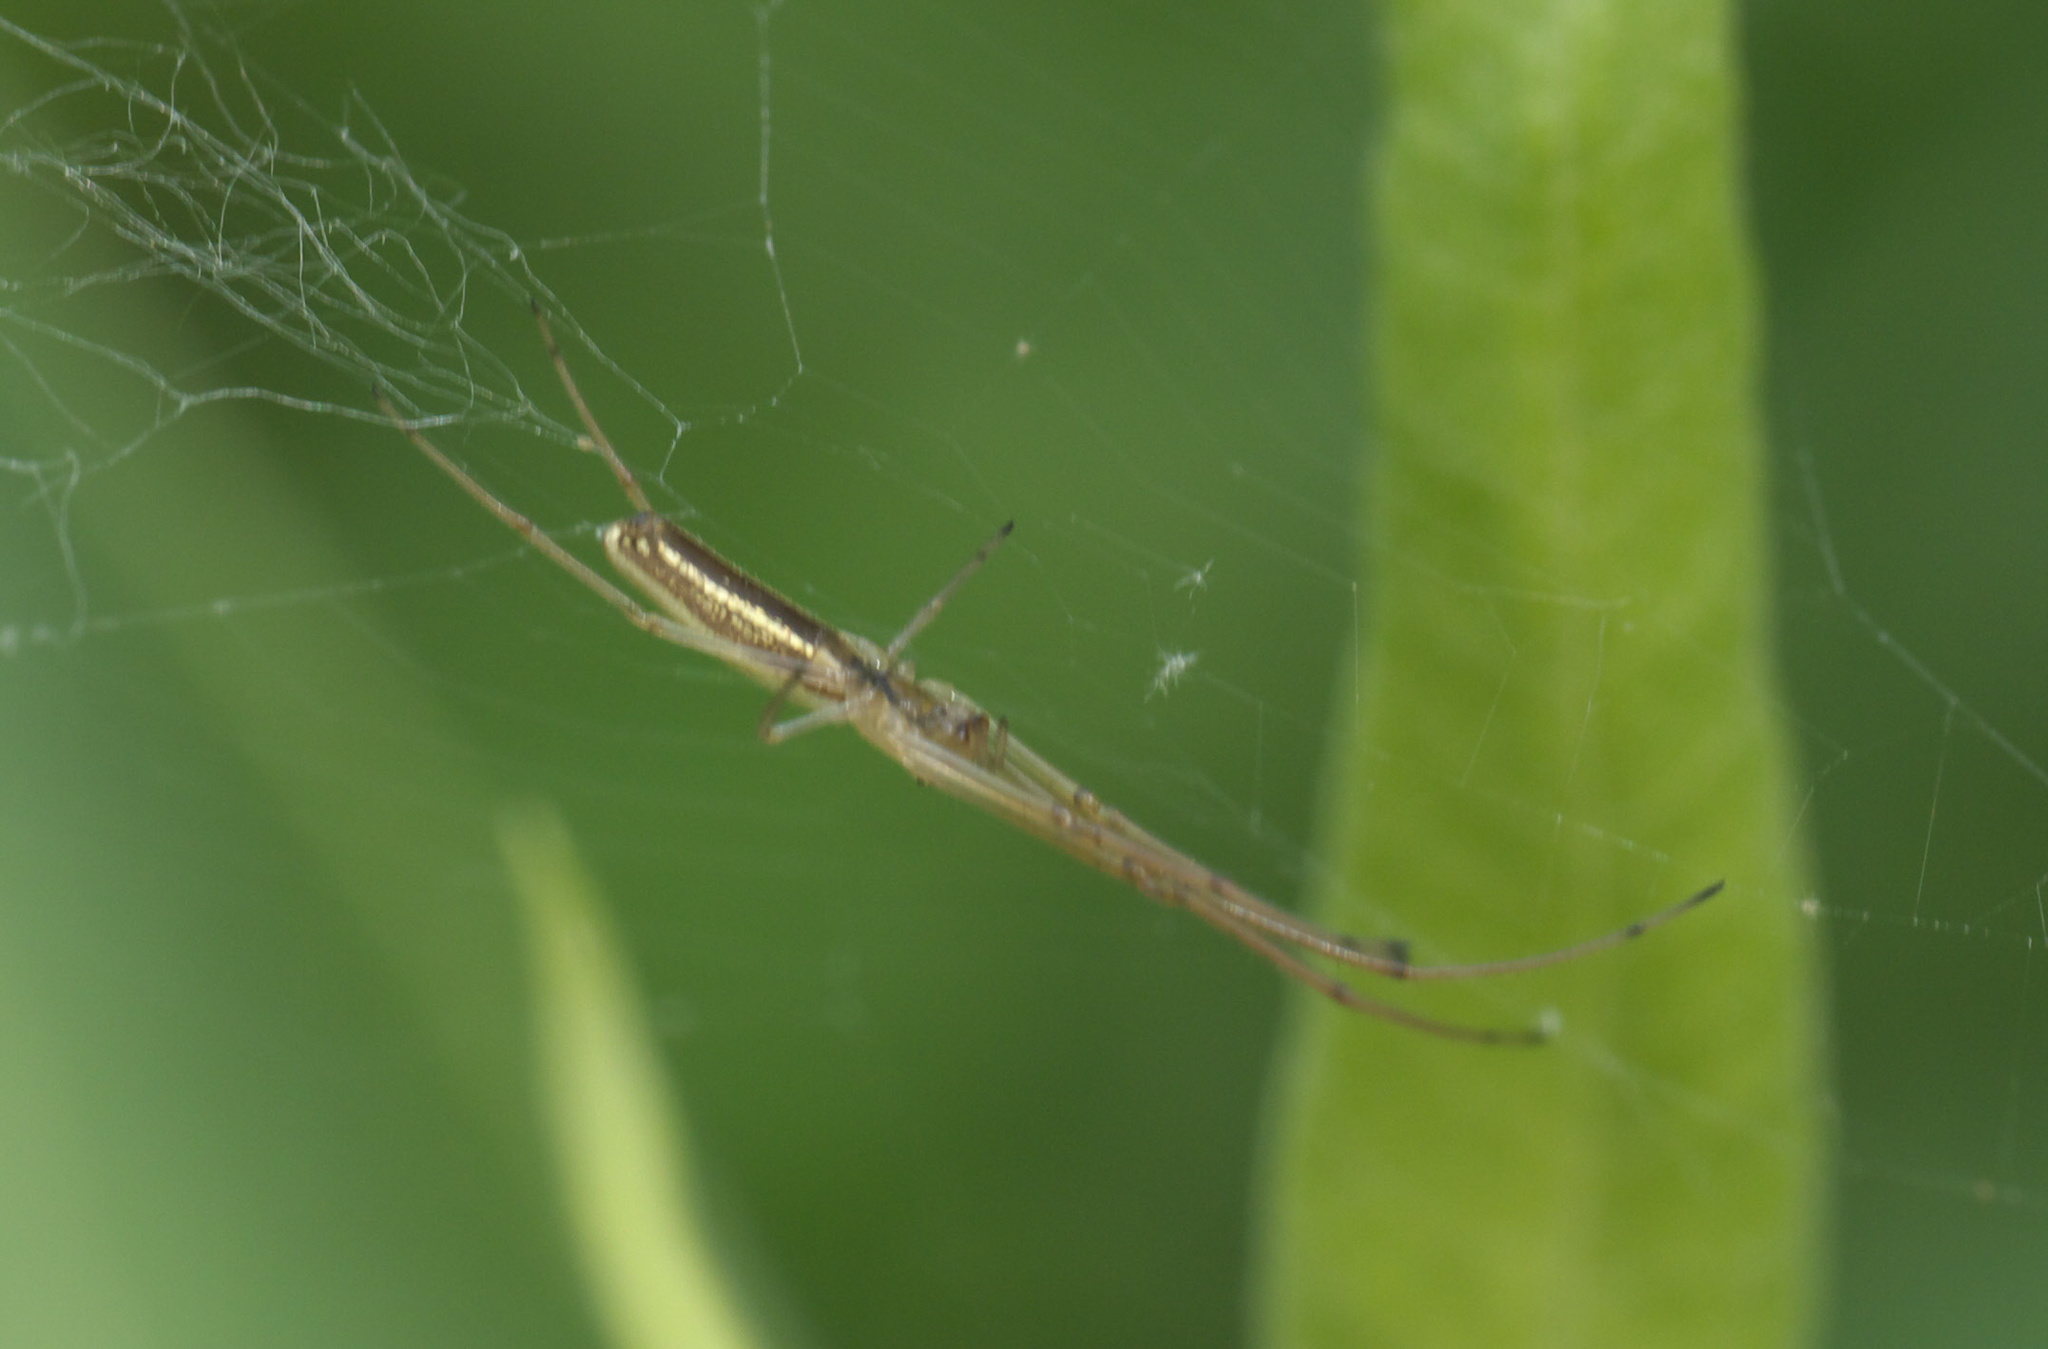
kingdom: Animalia
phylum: Arthropoda
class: Arachnida
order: Araneae
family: Tetragnathidae
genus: Tetragnatha
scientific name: Tetragnatha
